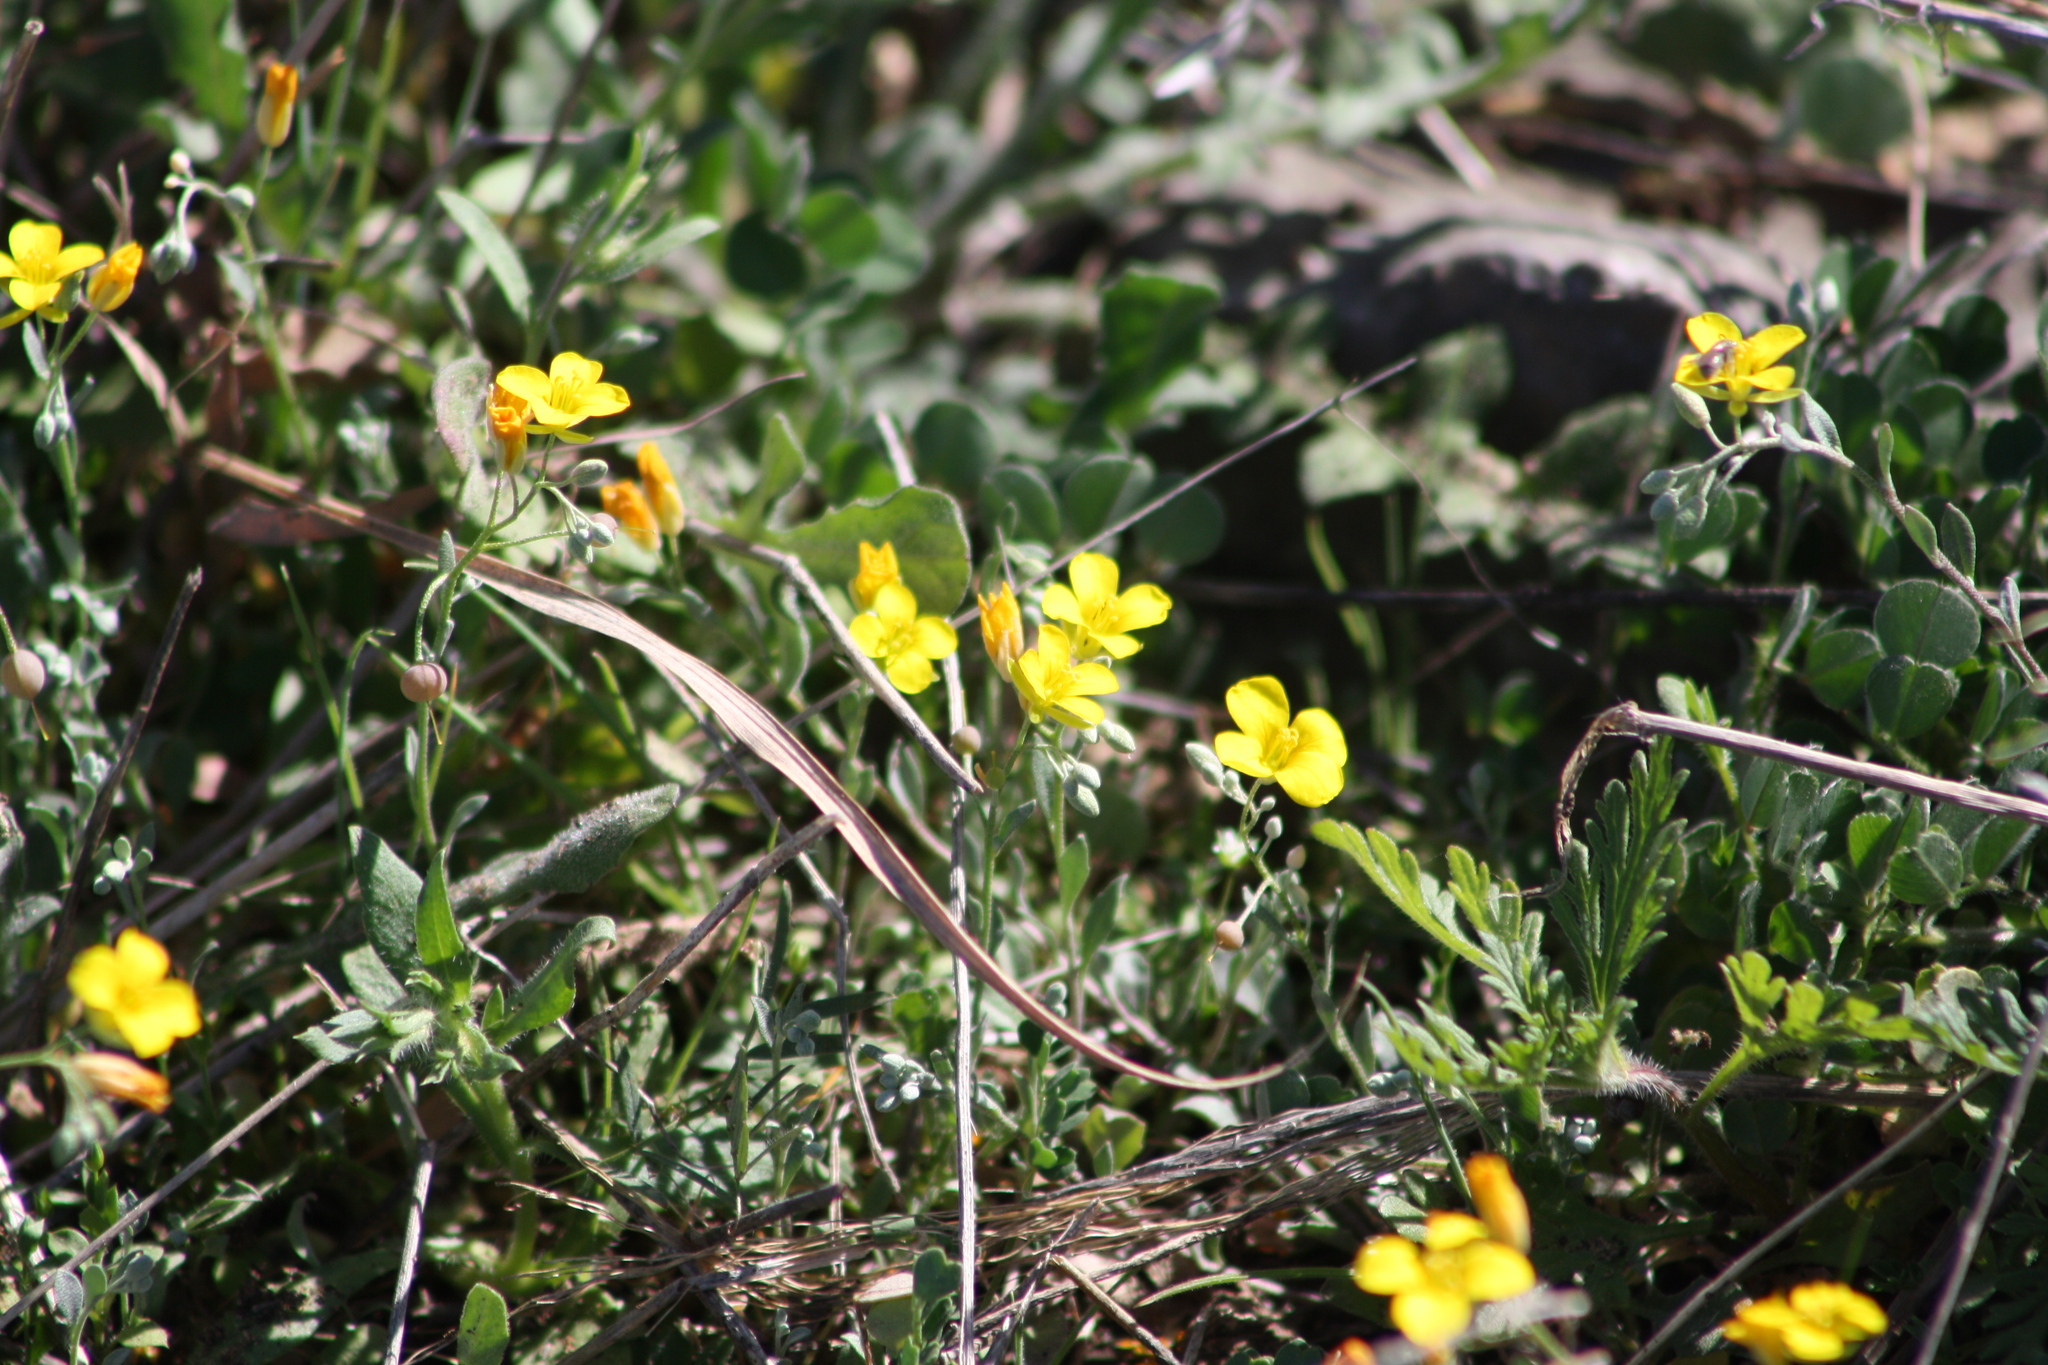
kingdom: Plantae
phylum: Tracheophyta
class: Magnoliopsida
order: Brassicales
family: Brassicaceae
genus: Physaria
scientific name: Physaria recurvata
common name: Gaslight bladderpod
